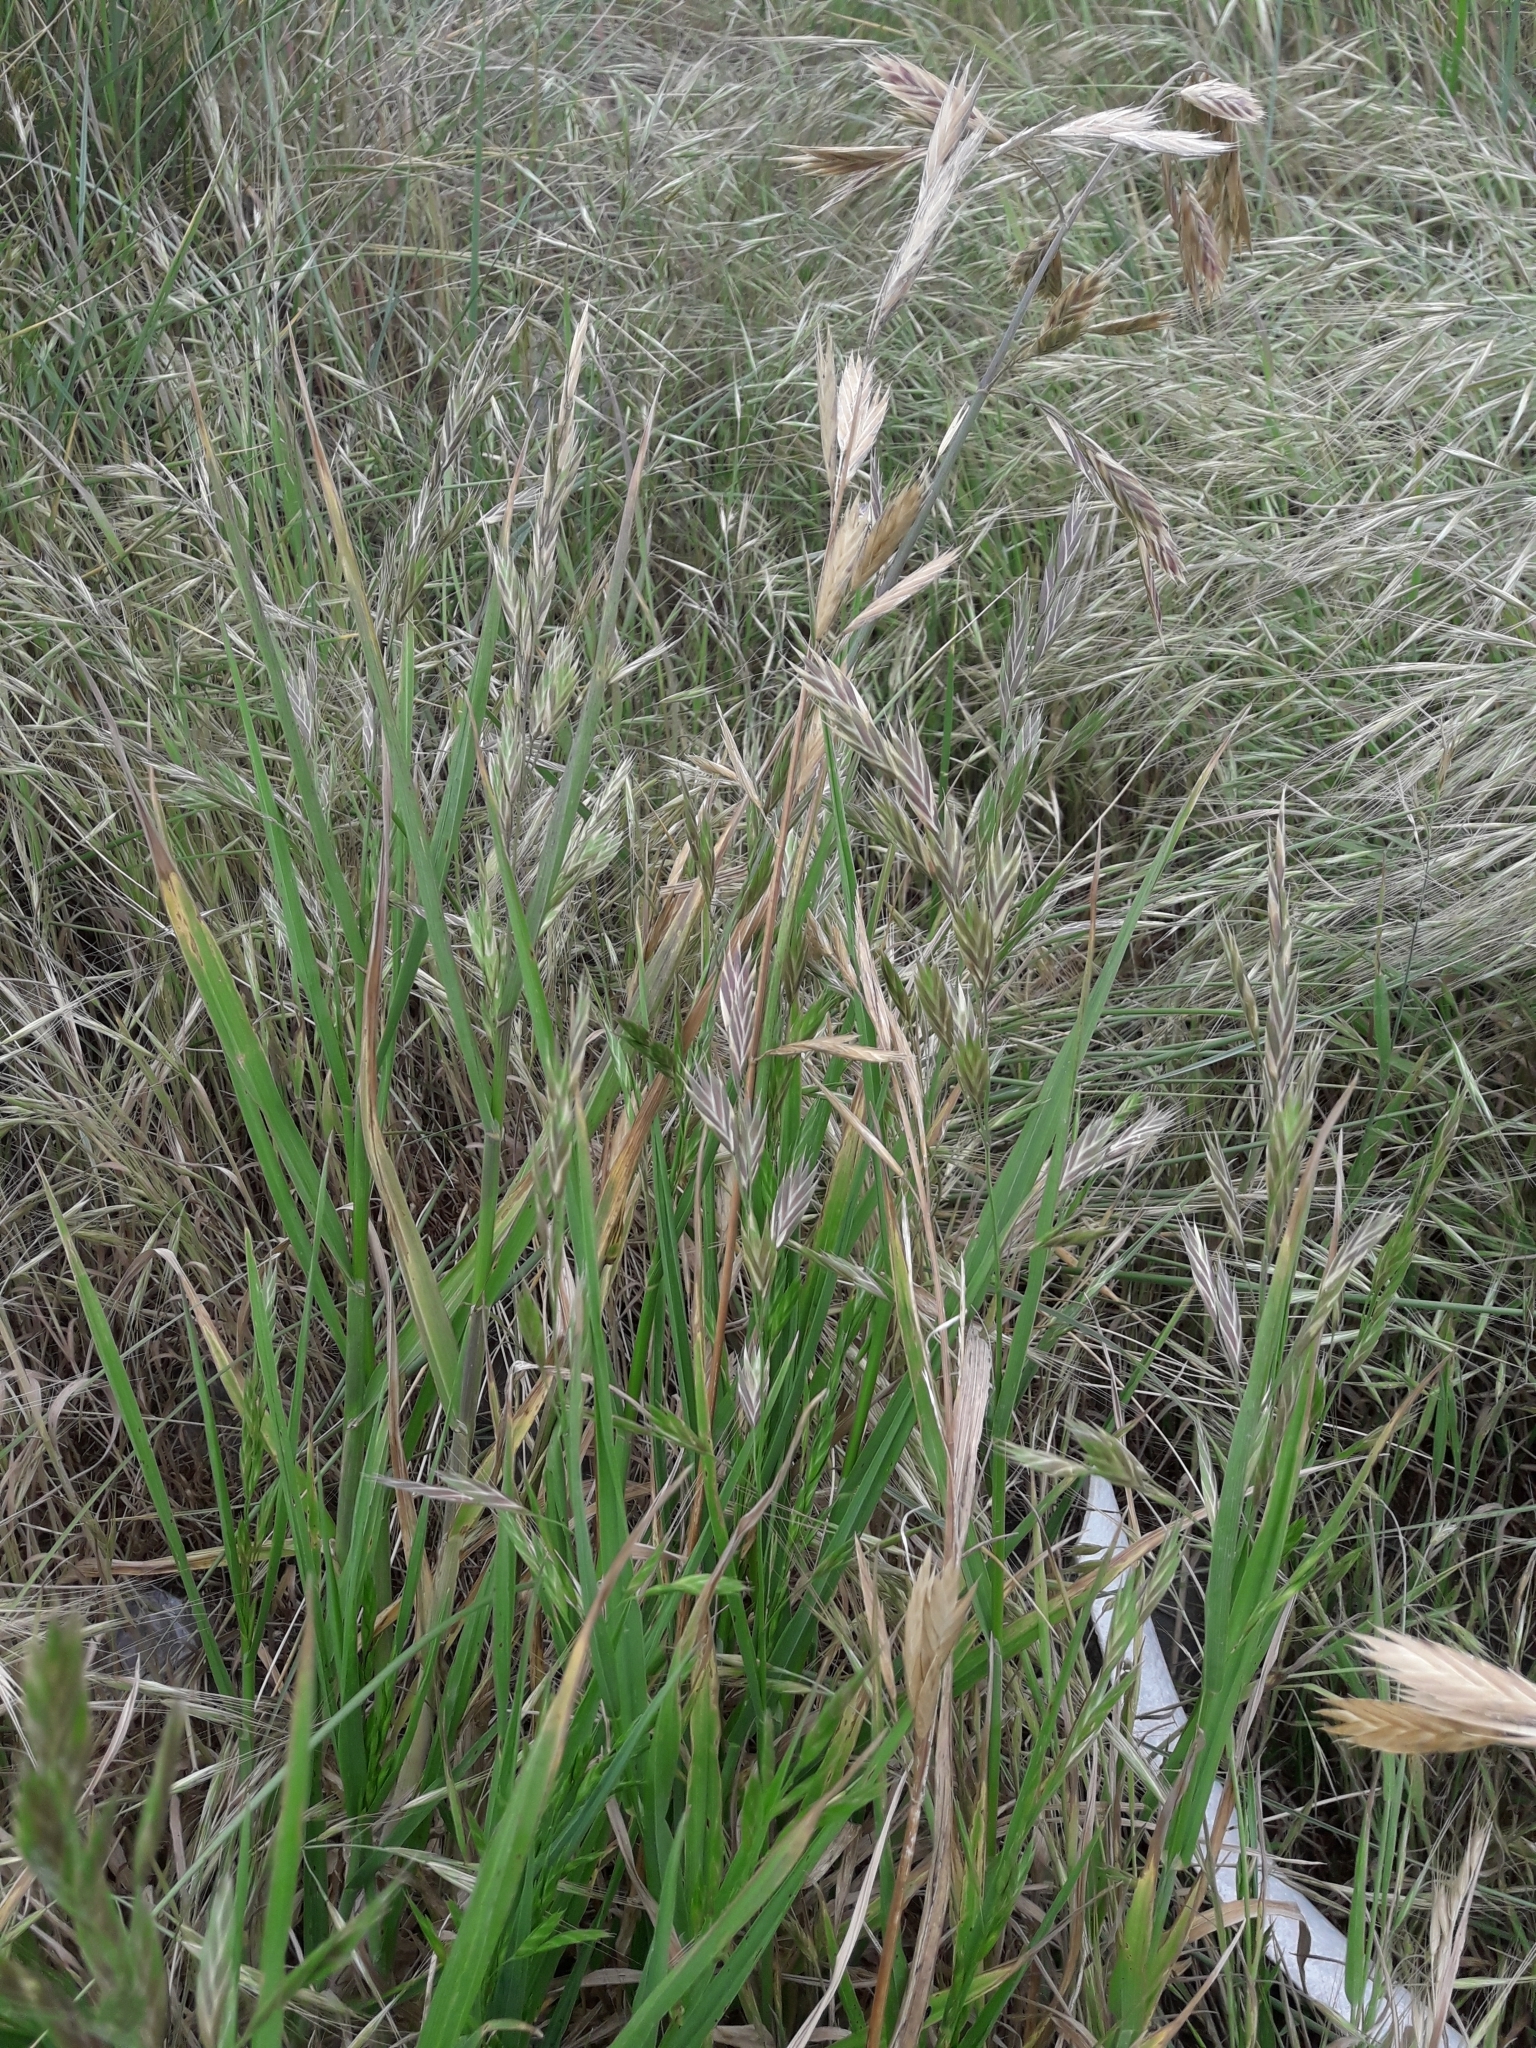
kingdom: Plantae
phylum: Tracheophyta
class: Liliopsida
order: Poales
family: Poaceae
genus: Bromus
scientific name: Bromus catharticus
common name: Rescuegrass
